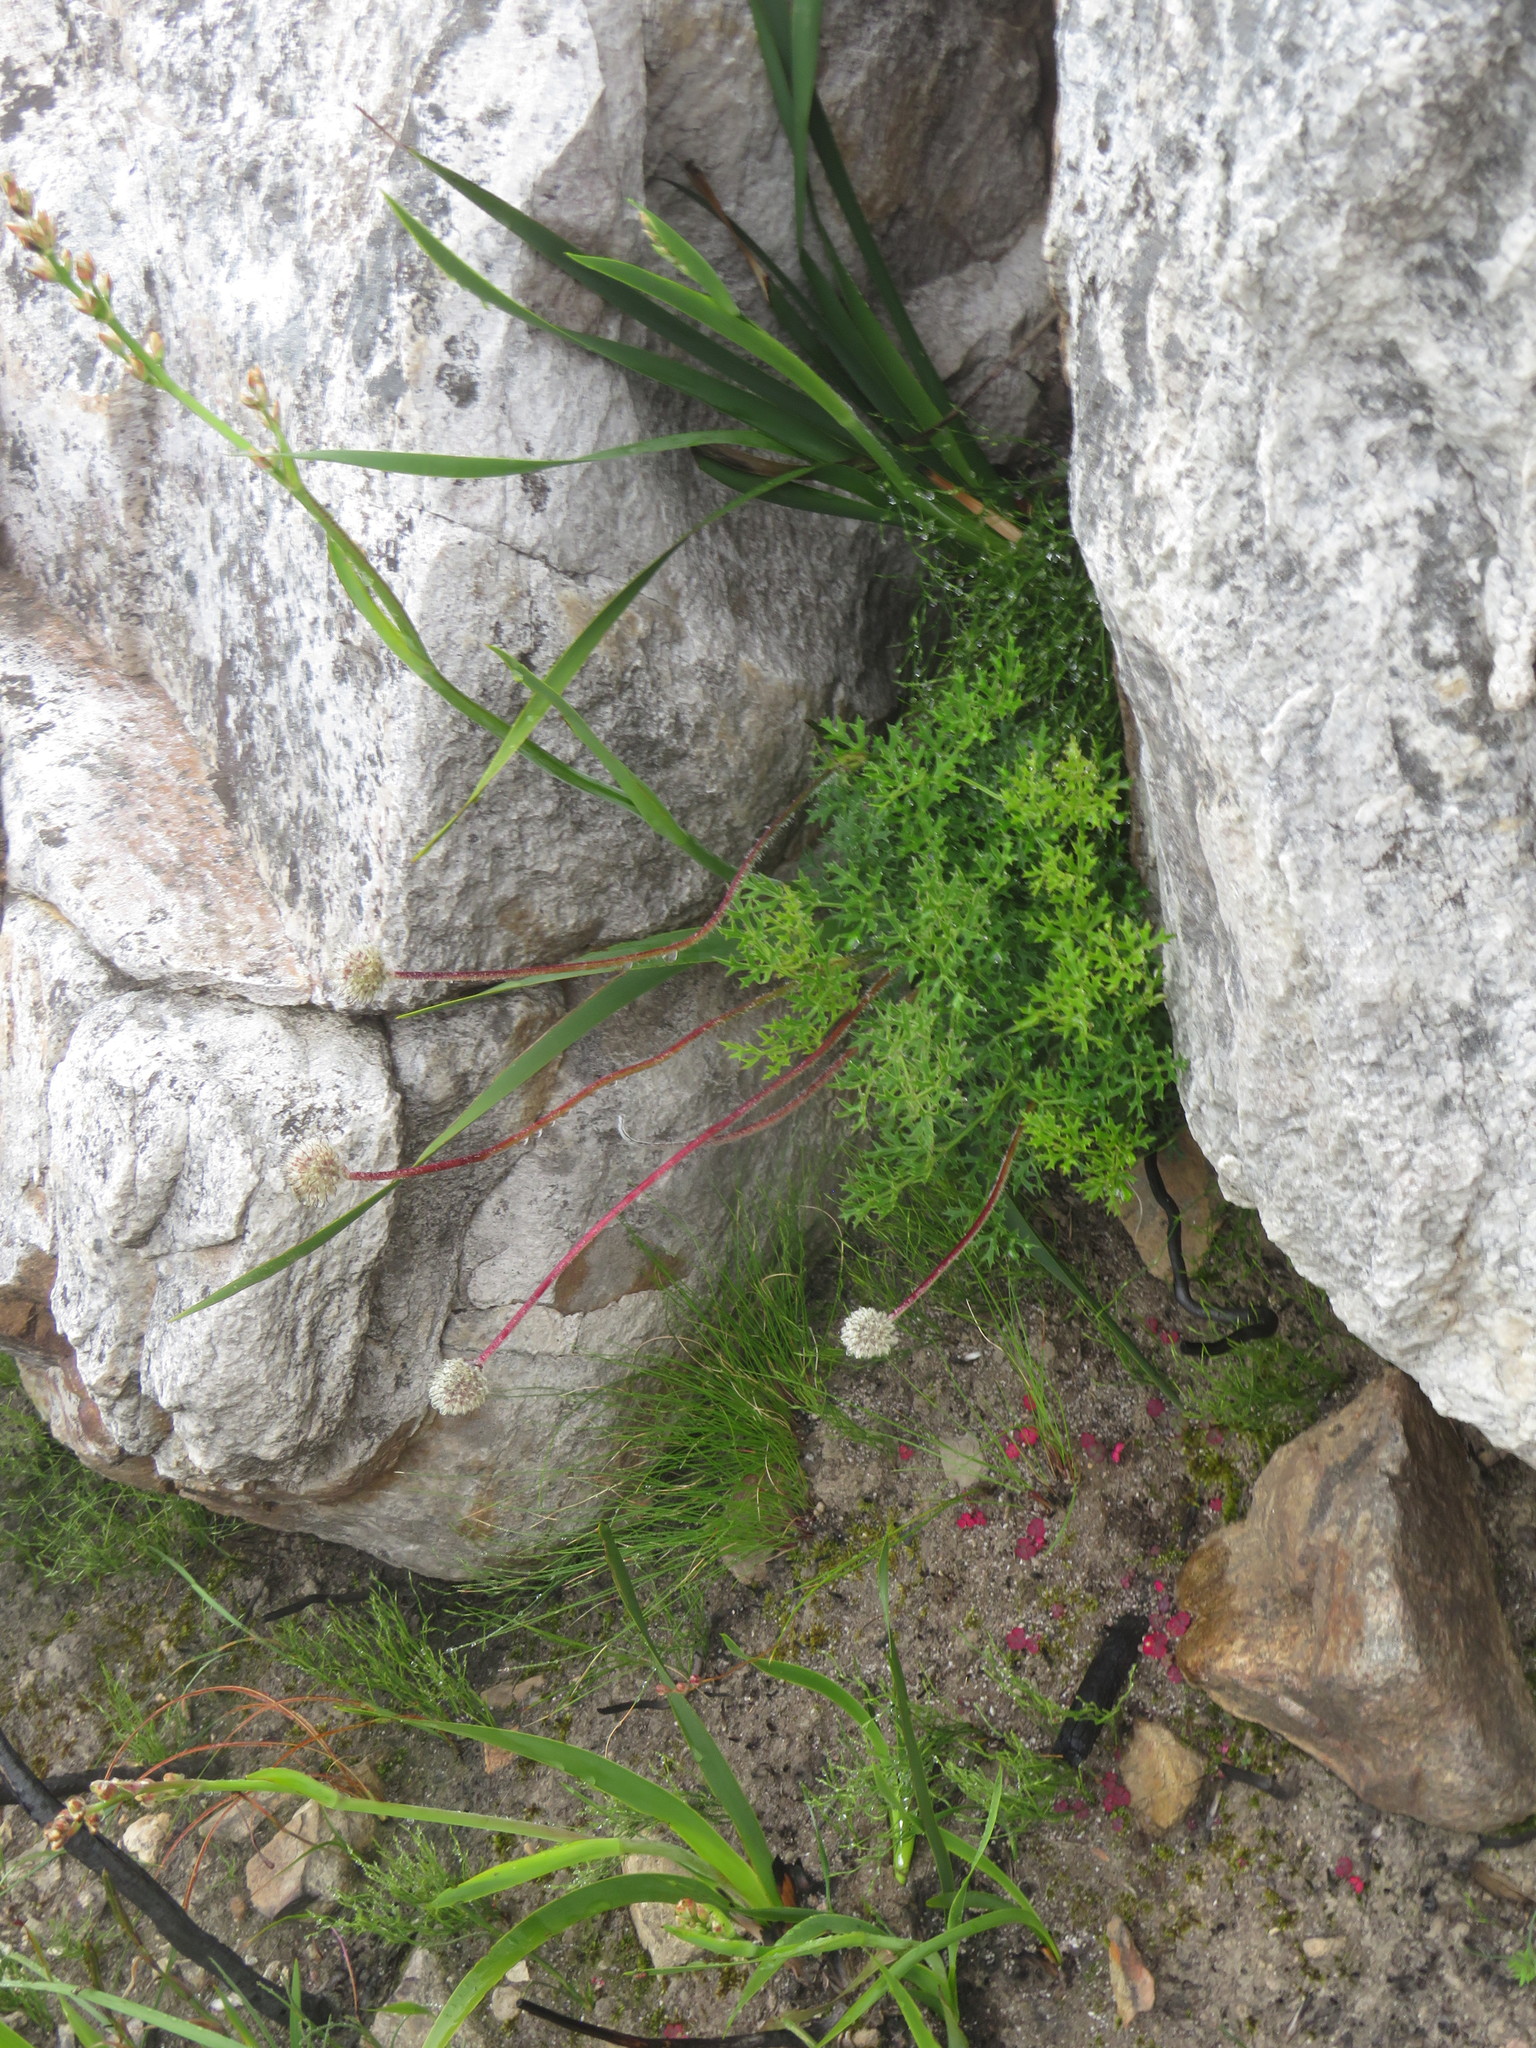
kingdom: Plantae
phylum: Tracheophyta
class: Magnoliopsida
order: Ranunculales
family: Ranunculaceae
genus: Knowltonia
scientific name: Knowltonia tenuifolia
